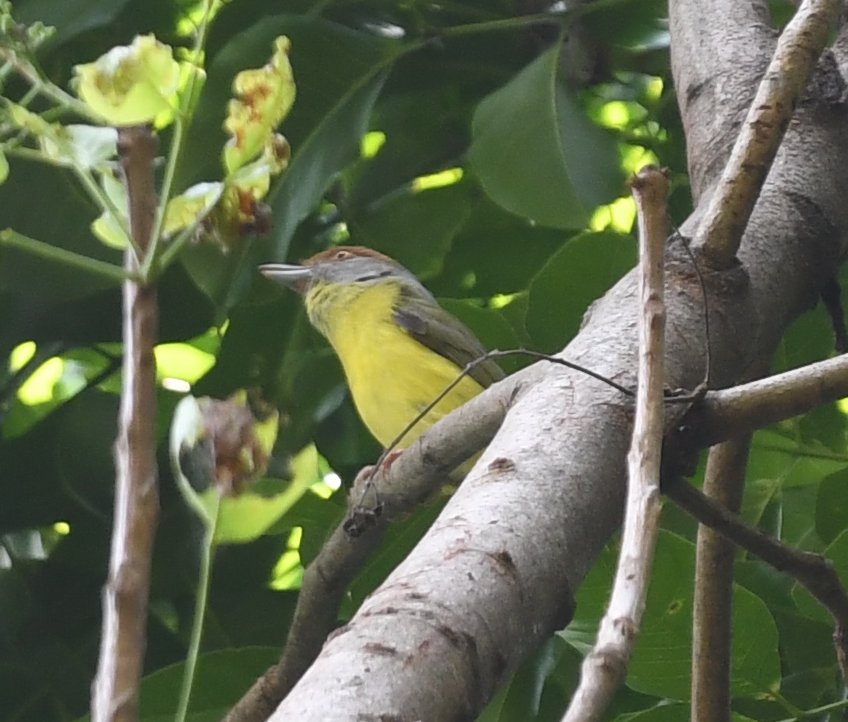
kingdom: Animalia
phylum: Chordata
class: Aves
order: Passeriformes
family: Vireonidae
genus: Cyclarhis
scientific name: Cyclarhis gujanensis
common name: Rufous-browed peppershrike
